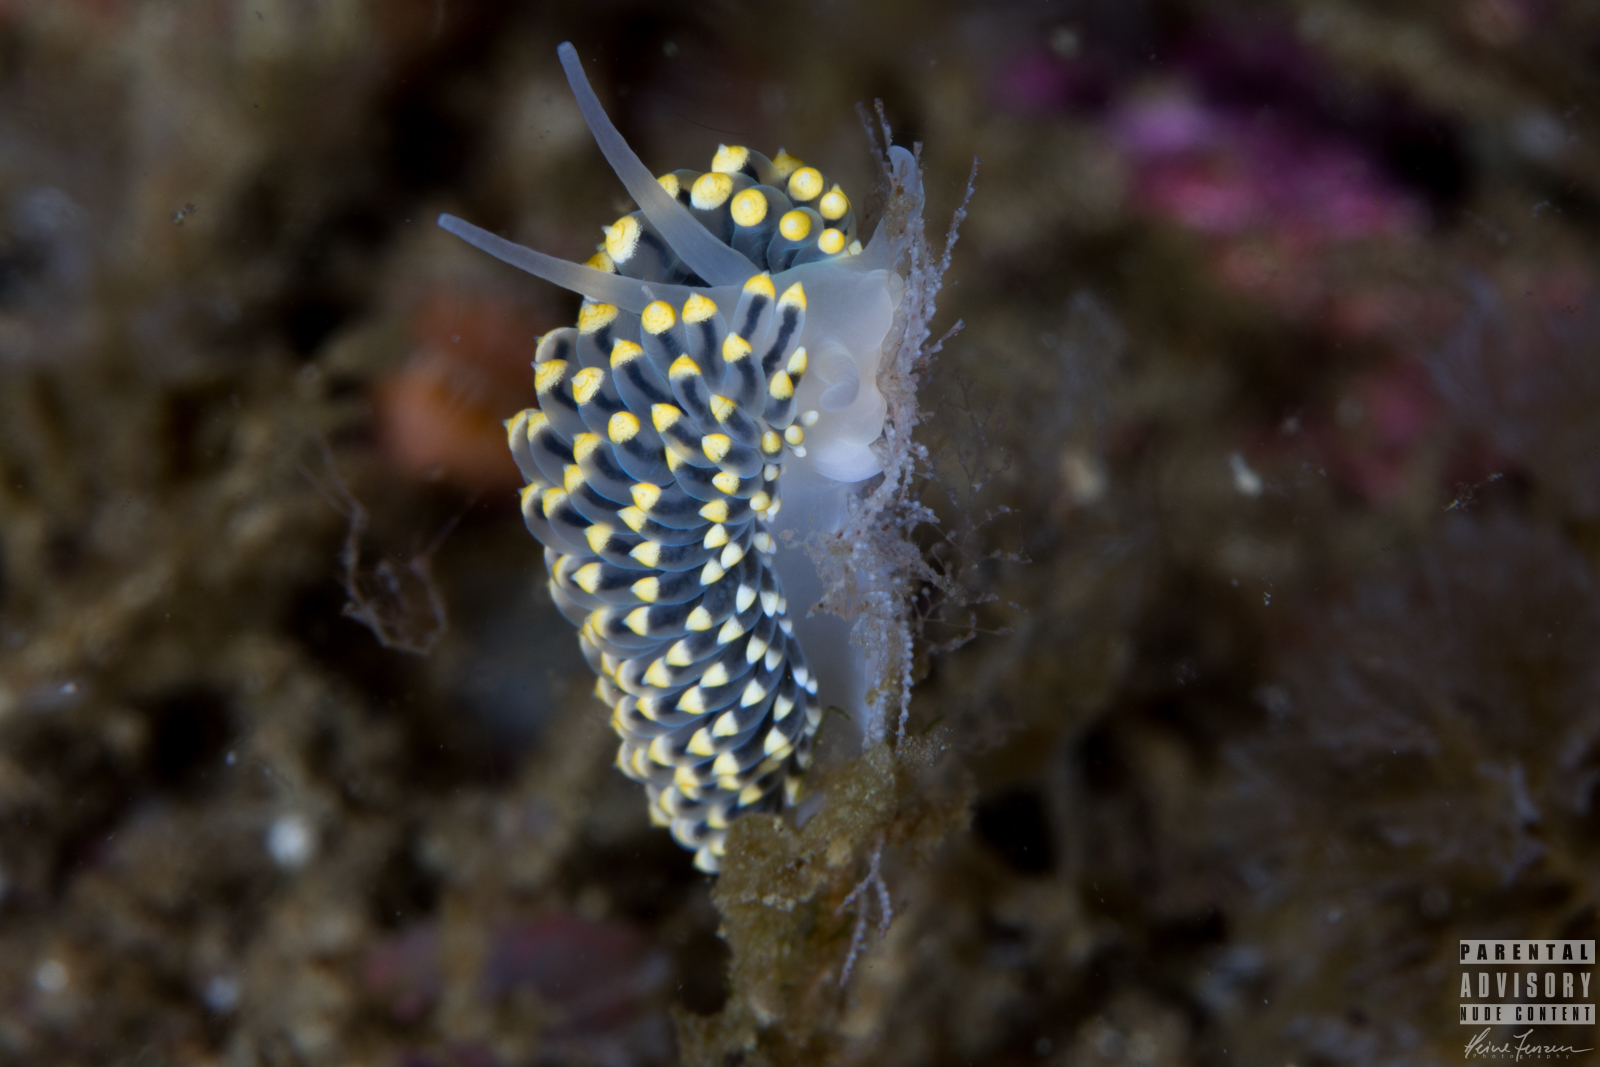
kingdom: Animalia
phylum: Mollusca
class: Gastropoda
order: Nudibranchia
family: Eubranchidae
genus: Eubranchus
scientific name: Eubranchus tricolor
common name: Painted balloon aeolis
